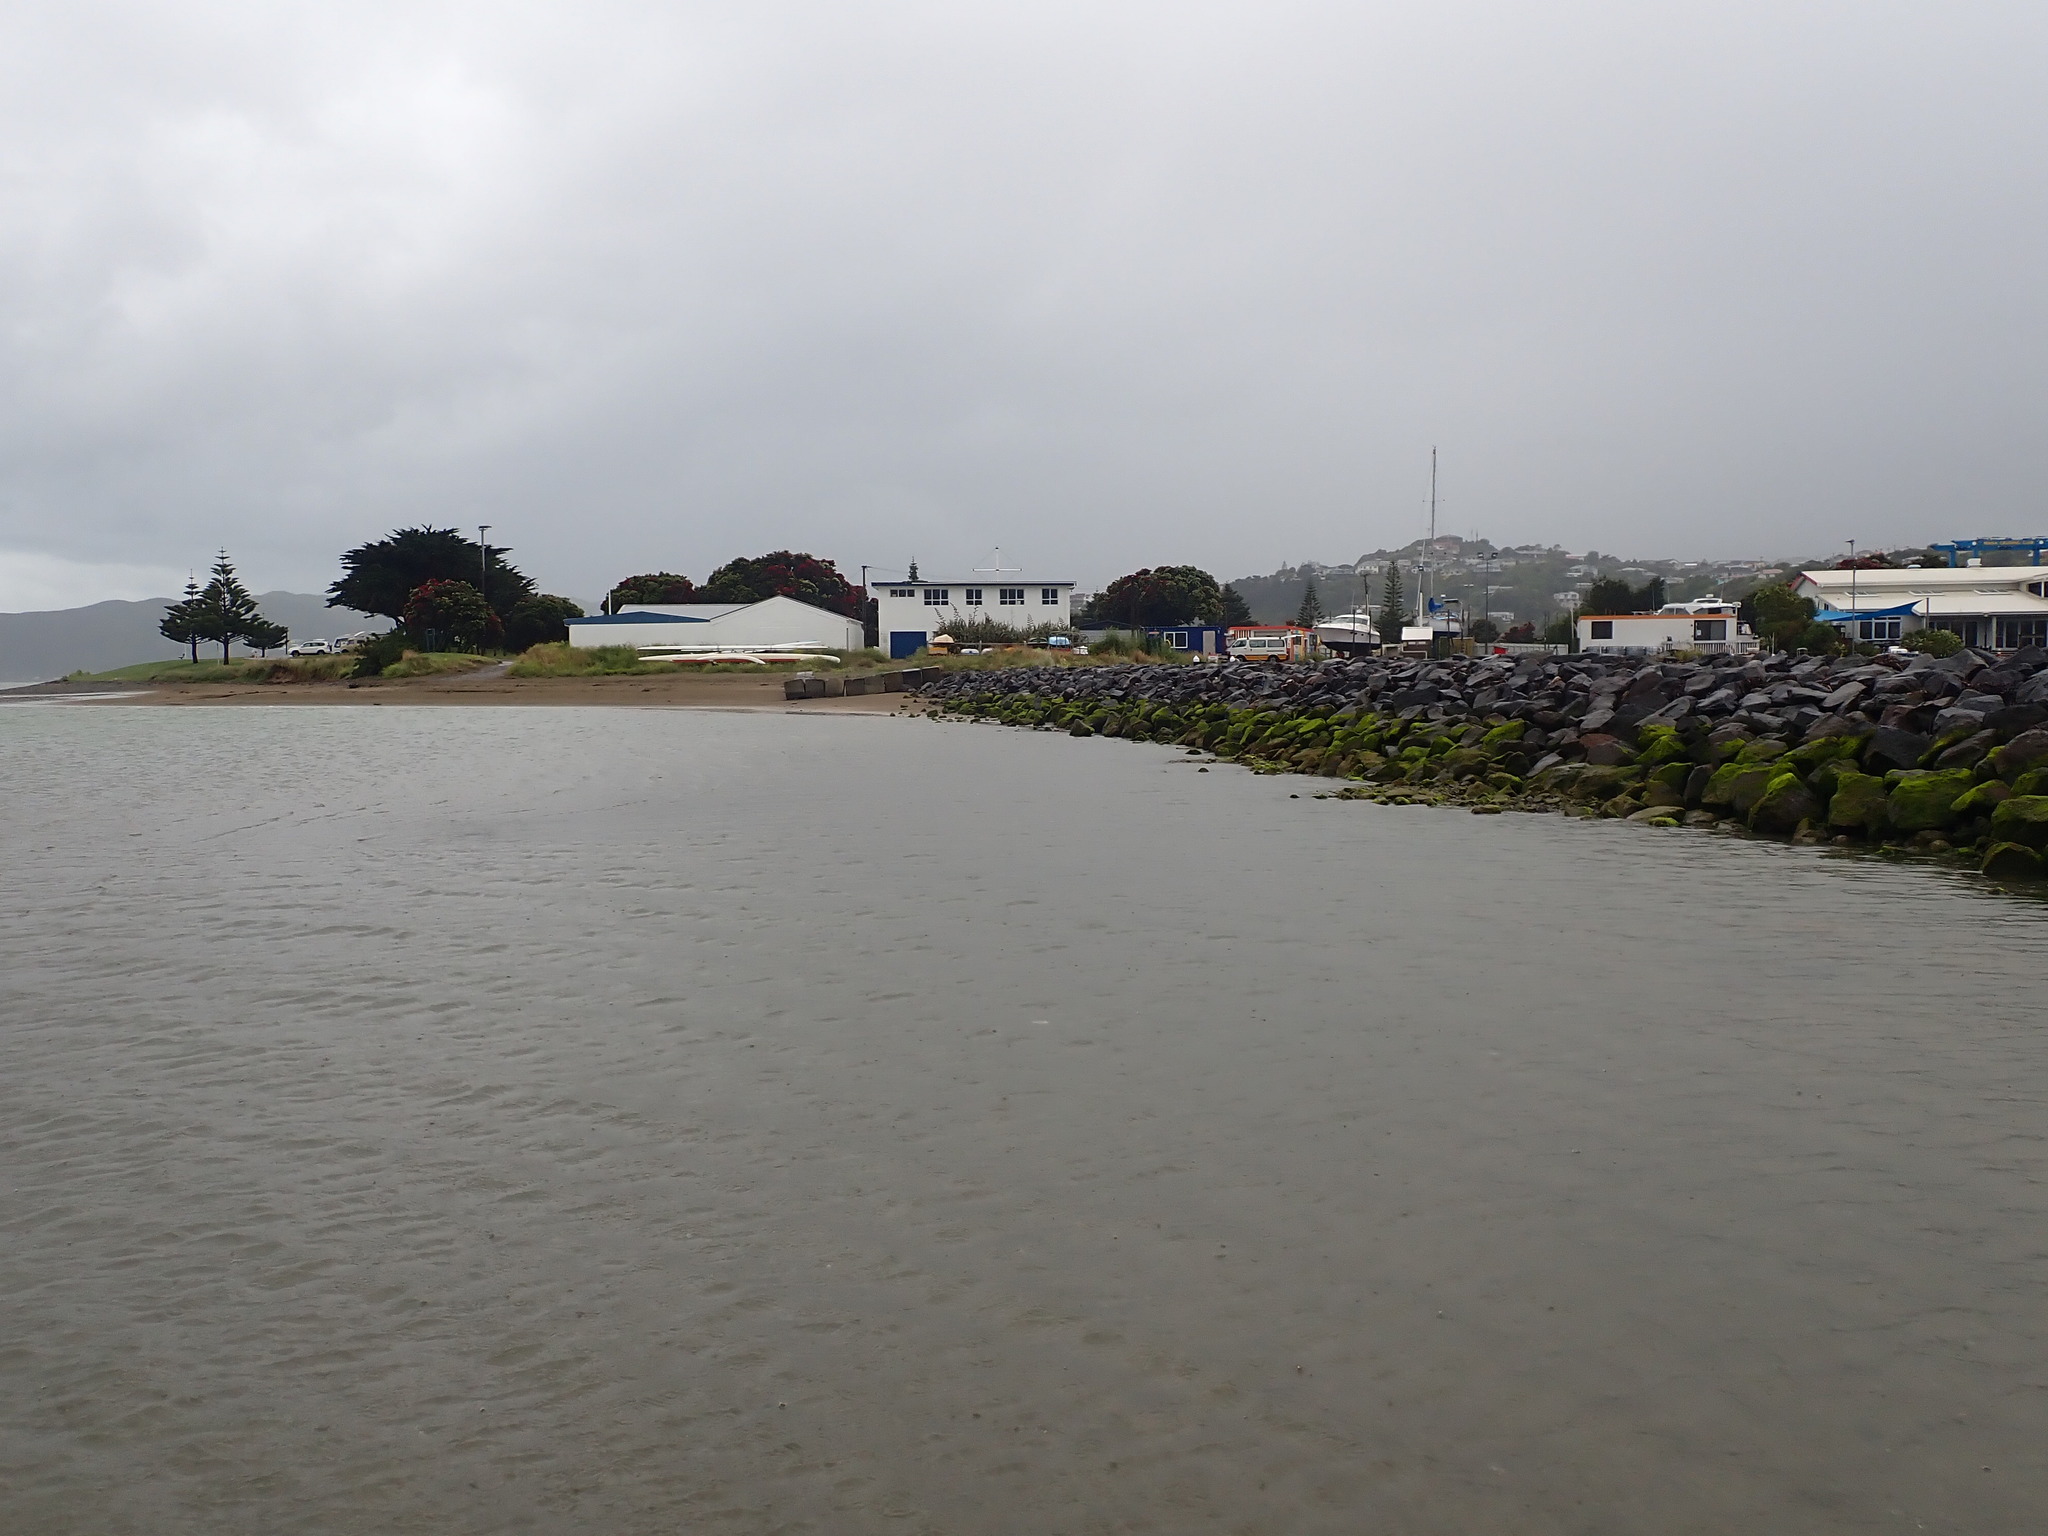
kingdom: Plantae
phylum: Tracheophyta
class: Liliopsida
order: Alismatales
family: Zosteraceae
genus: Zostera
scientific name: Zostera muelleri
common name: Species code: zc
